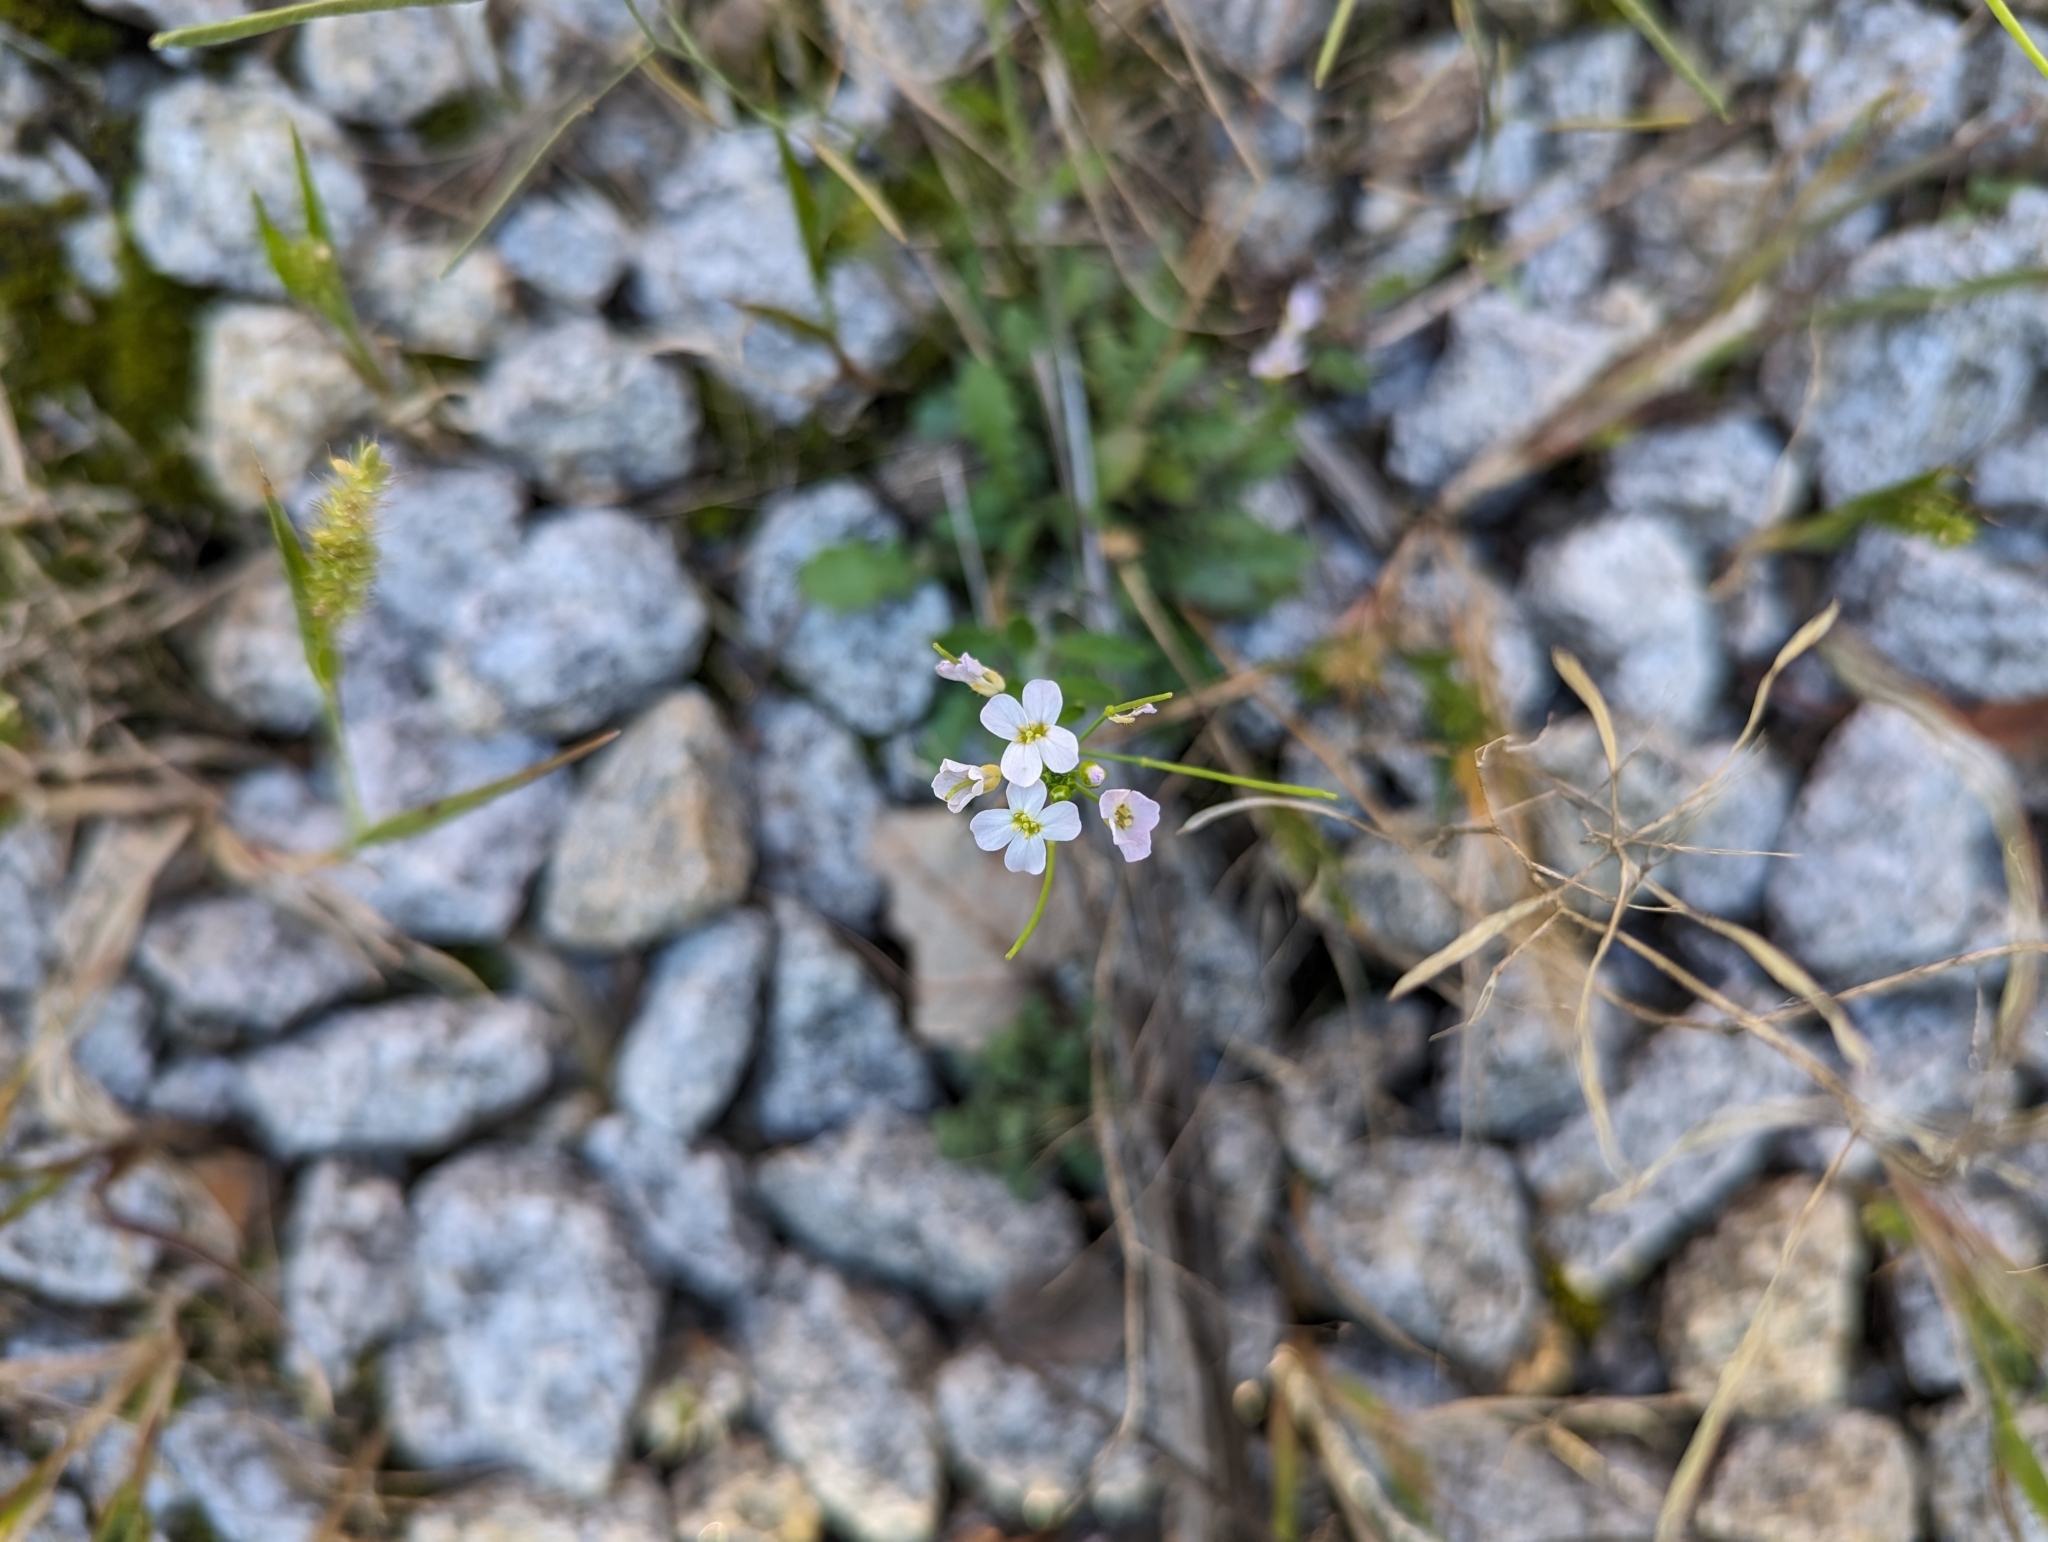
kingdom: Plantae
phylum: Tracheophyta
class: Magnoliopsida
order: Brassicales
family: Brassicaceae
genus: Arabidopsis
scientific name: Arabidopsis arenosa
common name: Sand rock-cress
